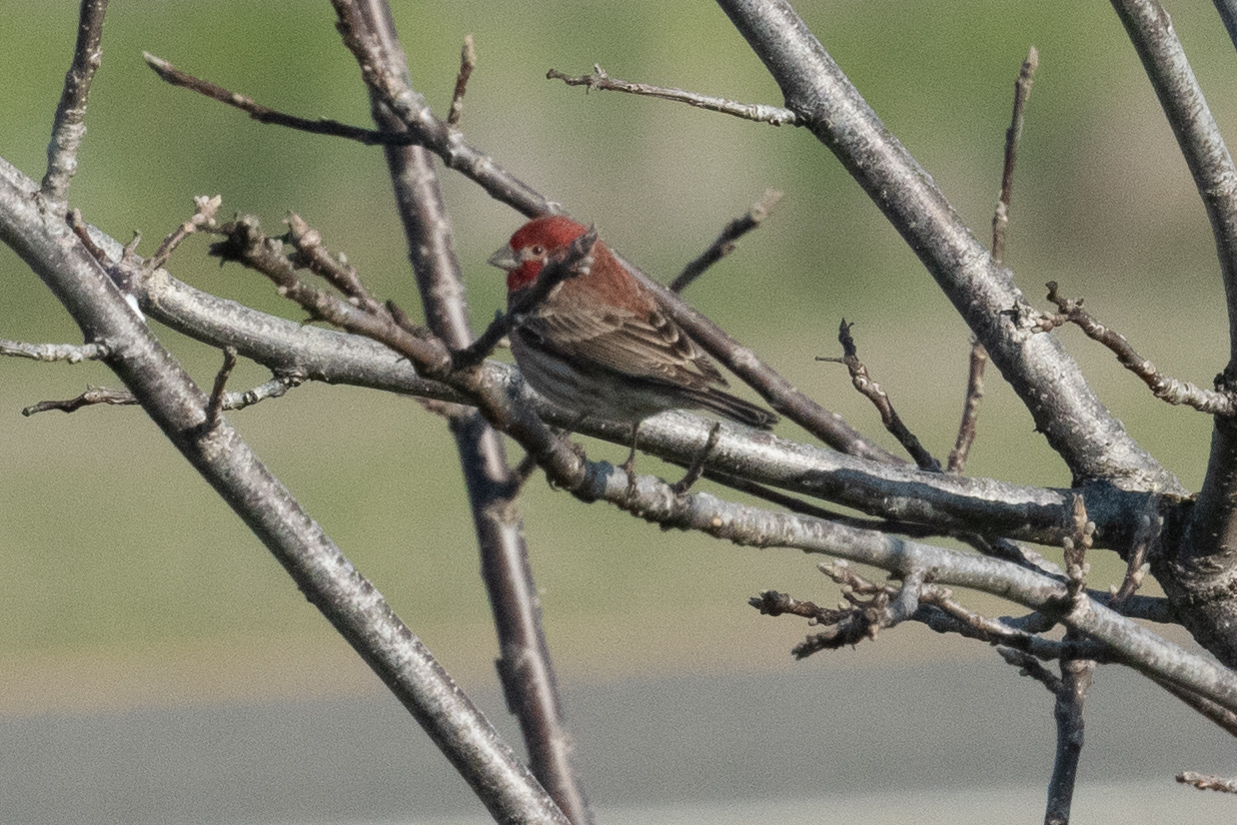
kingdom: Animalia
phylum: Chordata
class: Aves
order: Passeriformes
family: Fringillidae
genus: Haemorhous
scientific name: Haemorhous mexicanus
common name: House finch
